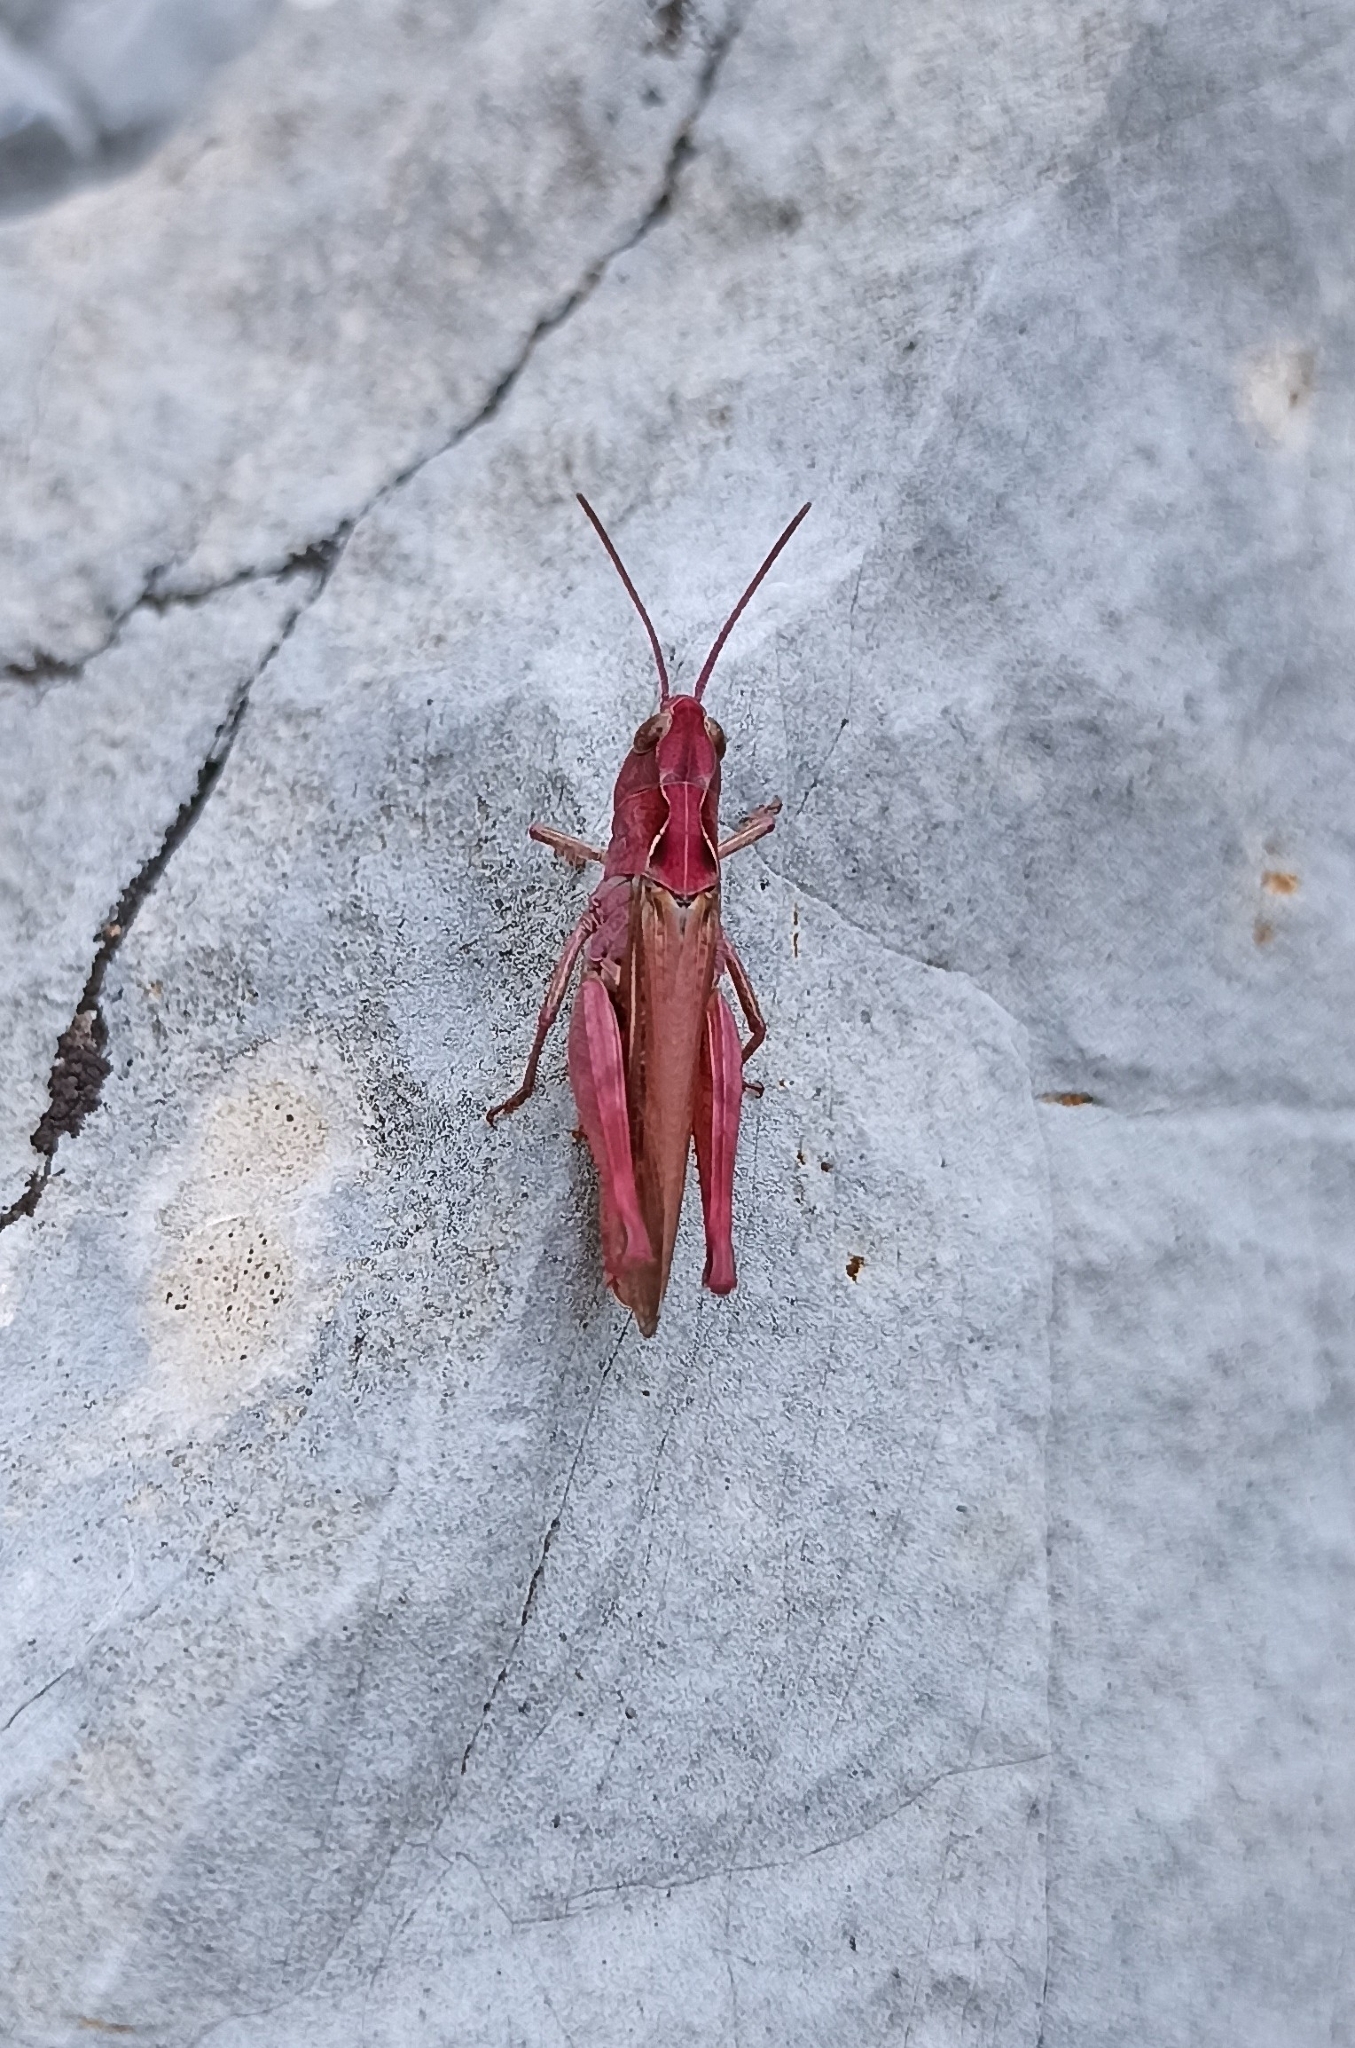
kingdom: Animalia
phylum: Arthropoda
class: Insecta
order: Orthoptera
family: Acrididae
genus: Chorthippus
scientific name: Chorthippus saulcyi
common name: French grasshopper
